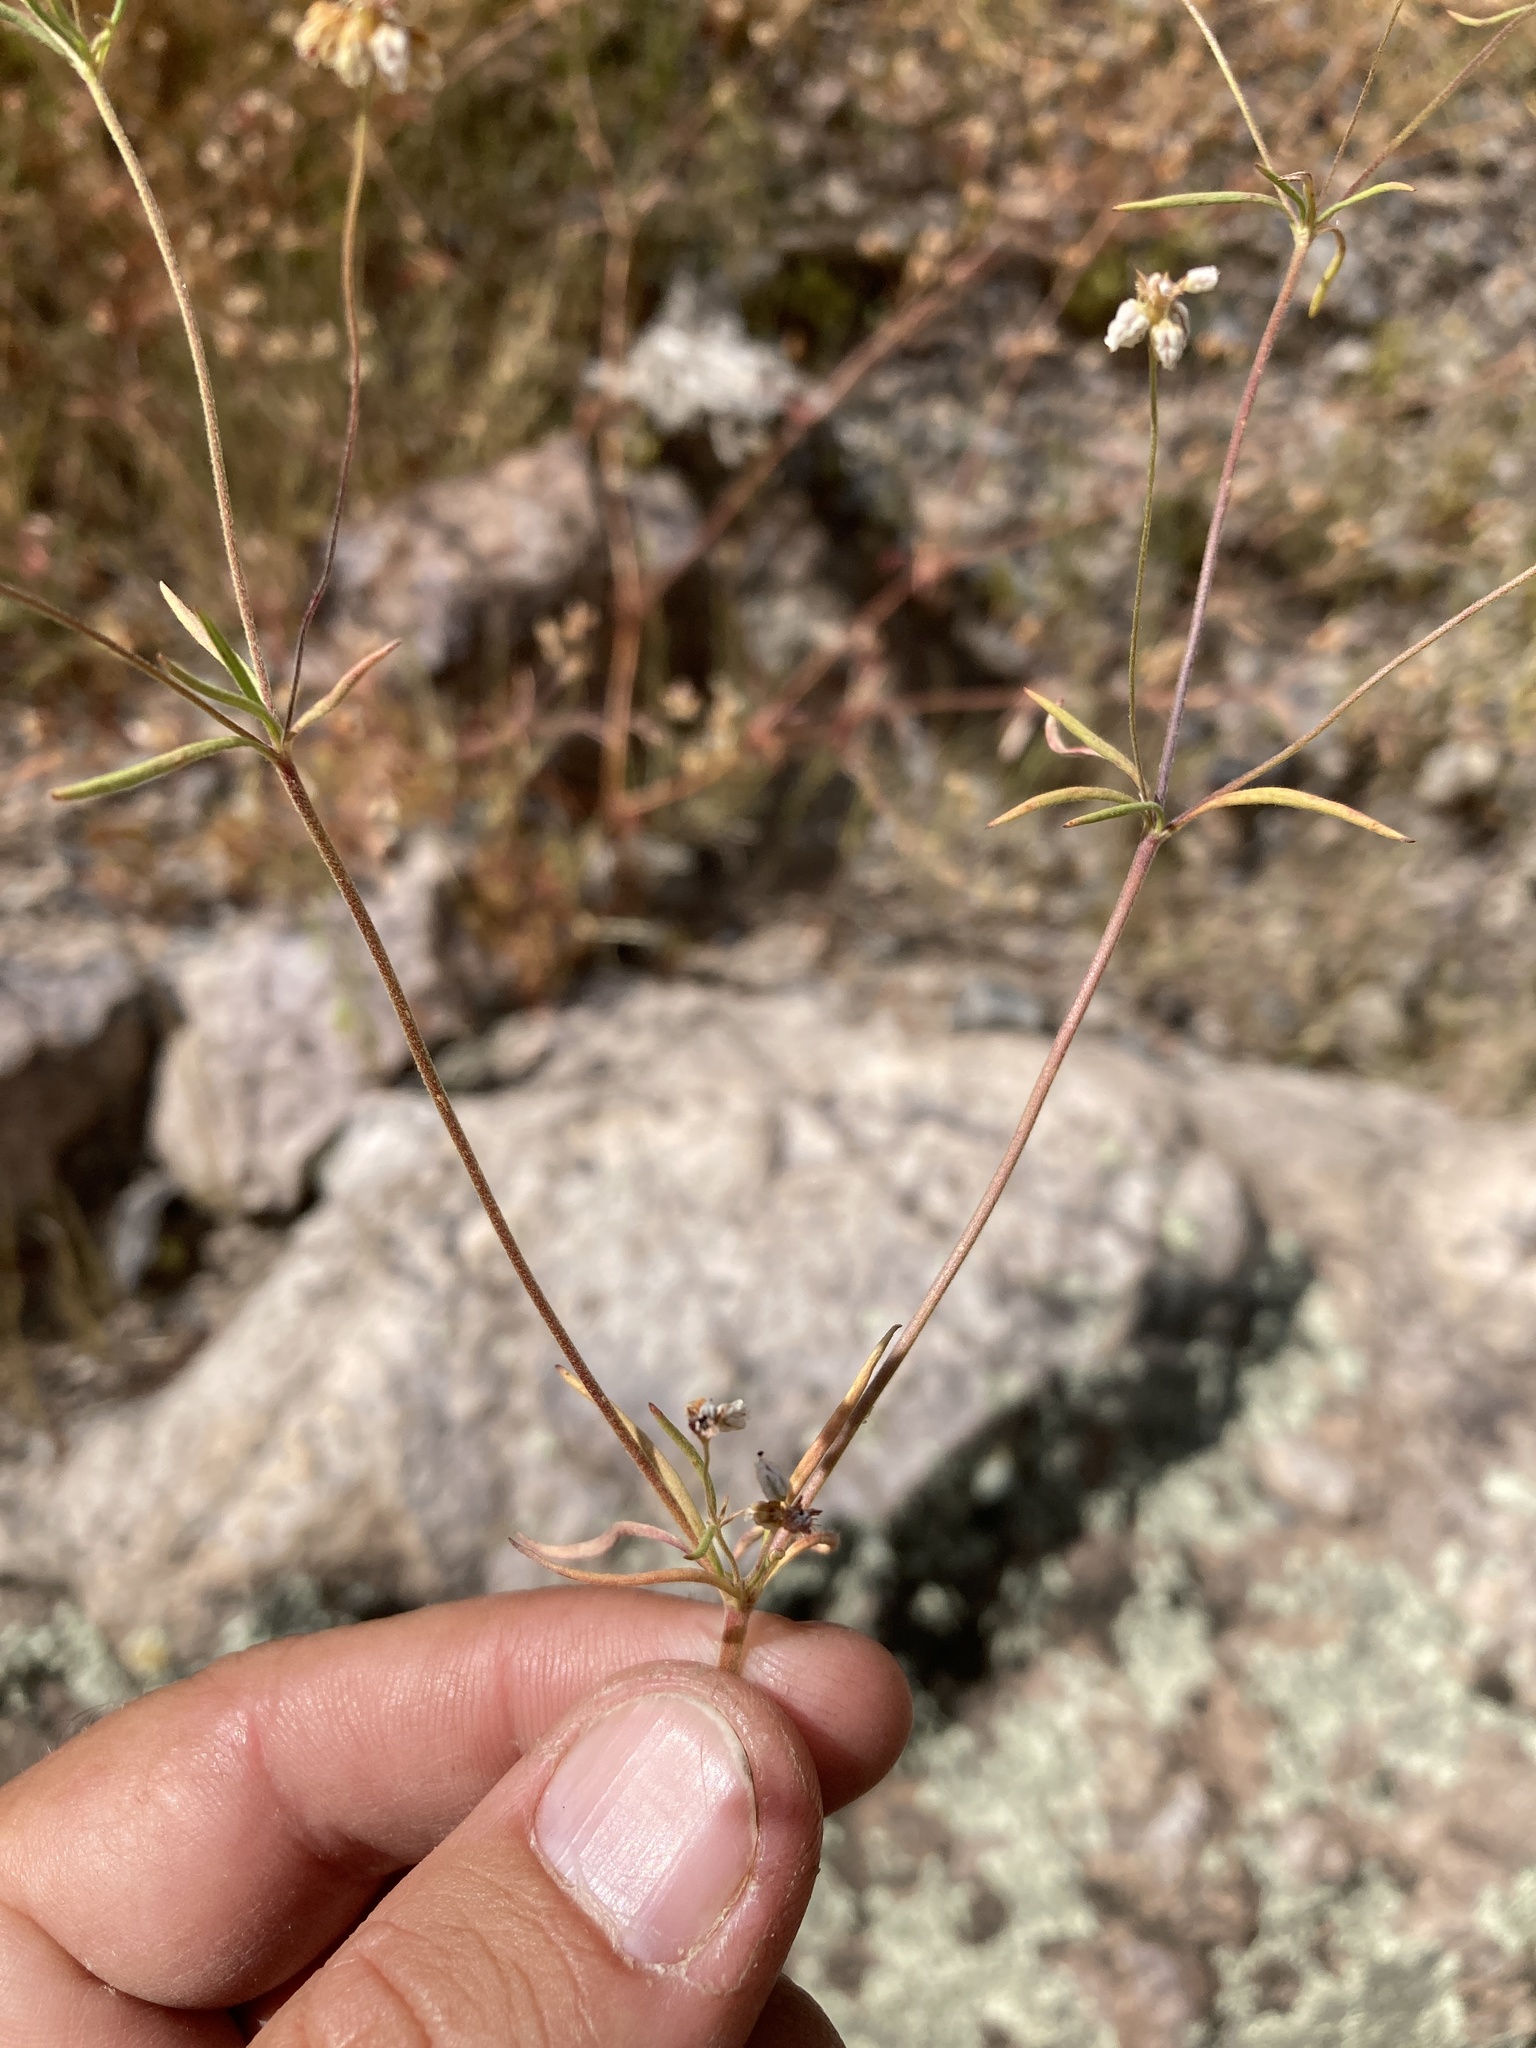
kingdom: Plantae
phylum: Tracheophyta
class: Magnoliopsida
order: Caryophyllales
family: Polygonaceae
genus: Eriogonum
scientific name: Eriogonum pharnaceoides
